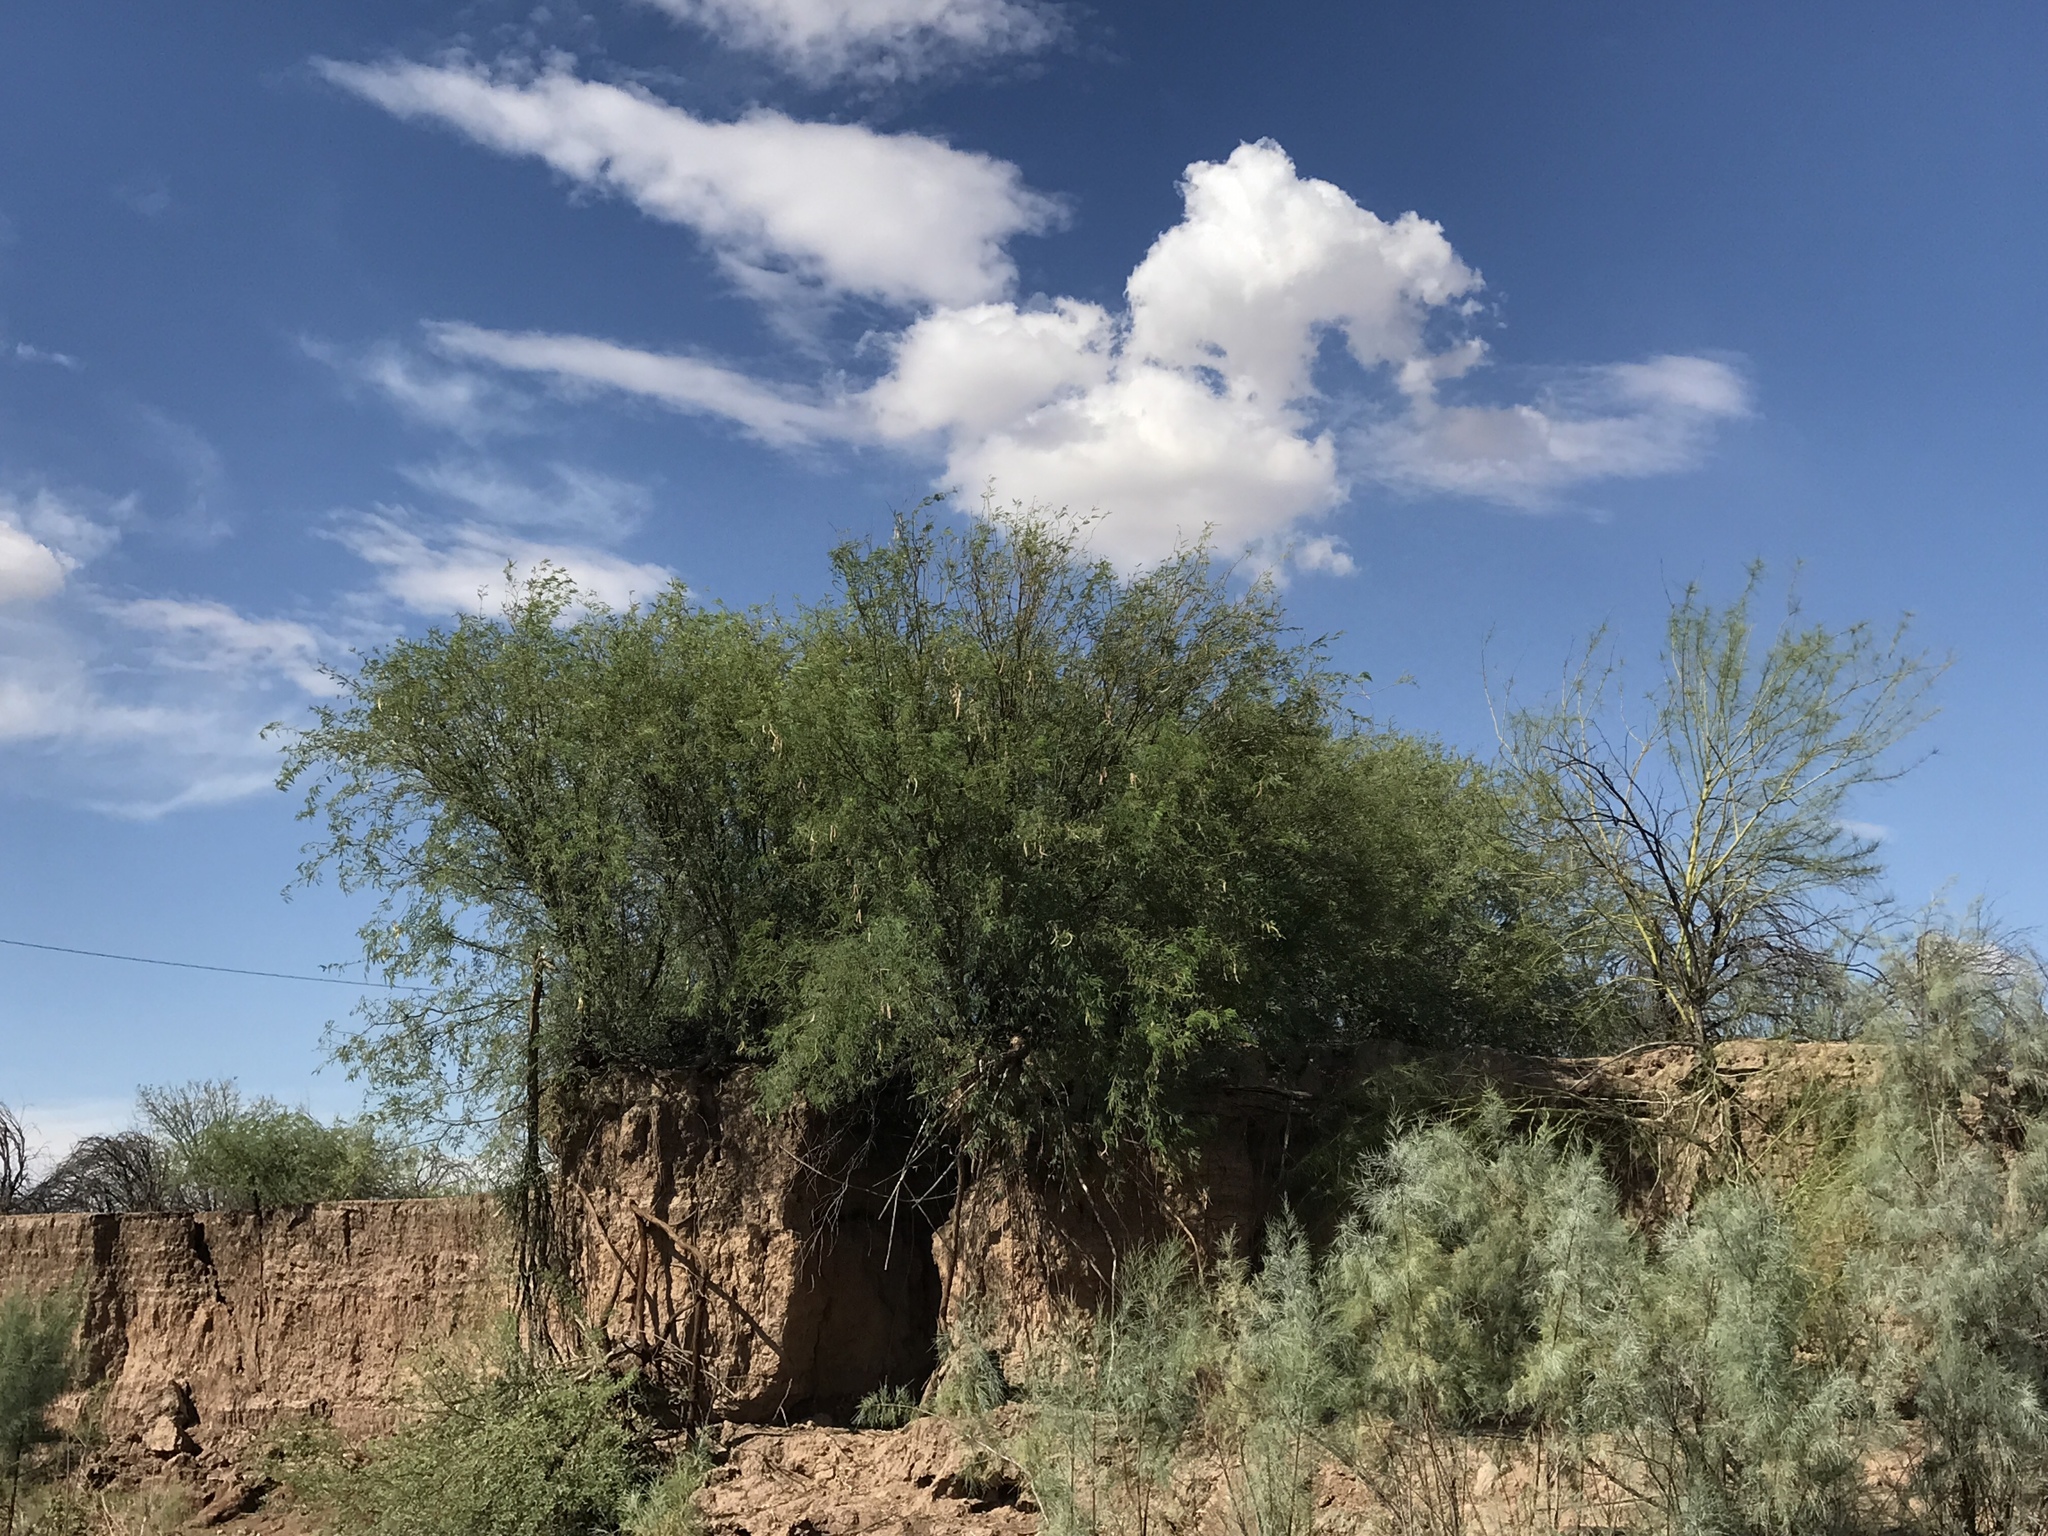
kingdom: Plantae
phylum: Tracheophyta
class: Magnoliopsida
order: Fabales
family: Fabaceae
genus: Prosopis
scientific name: Prosopis velutina
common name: Velvet mesquite
